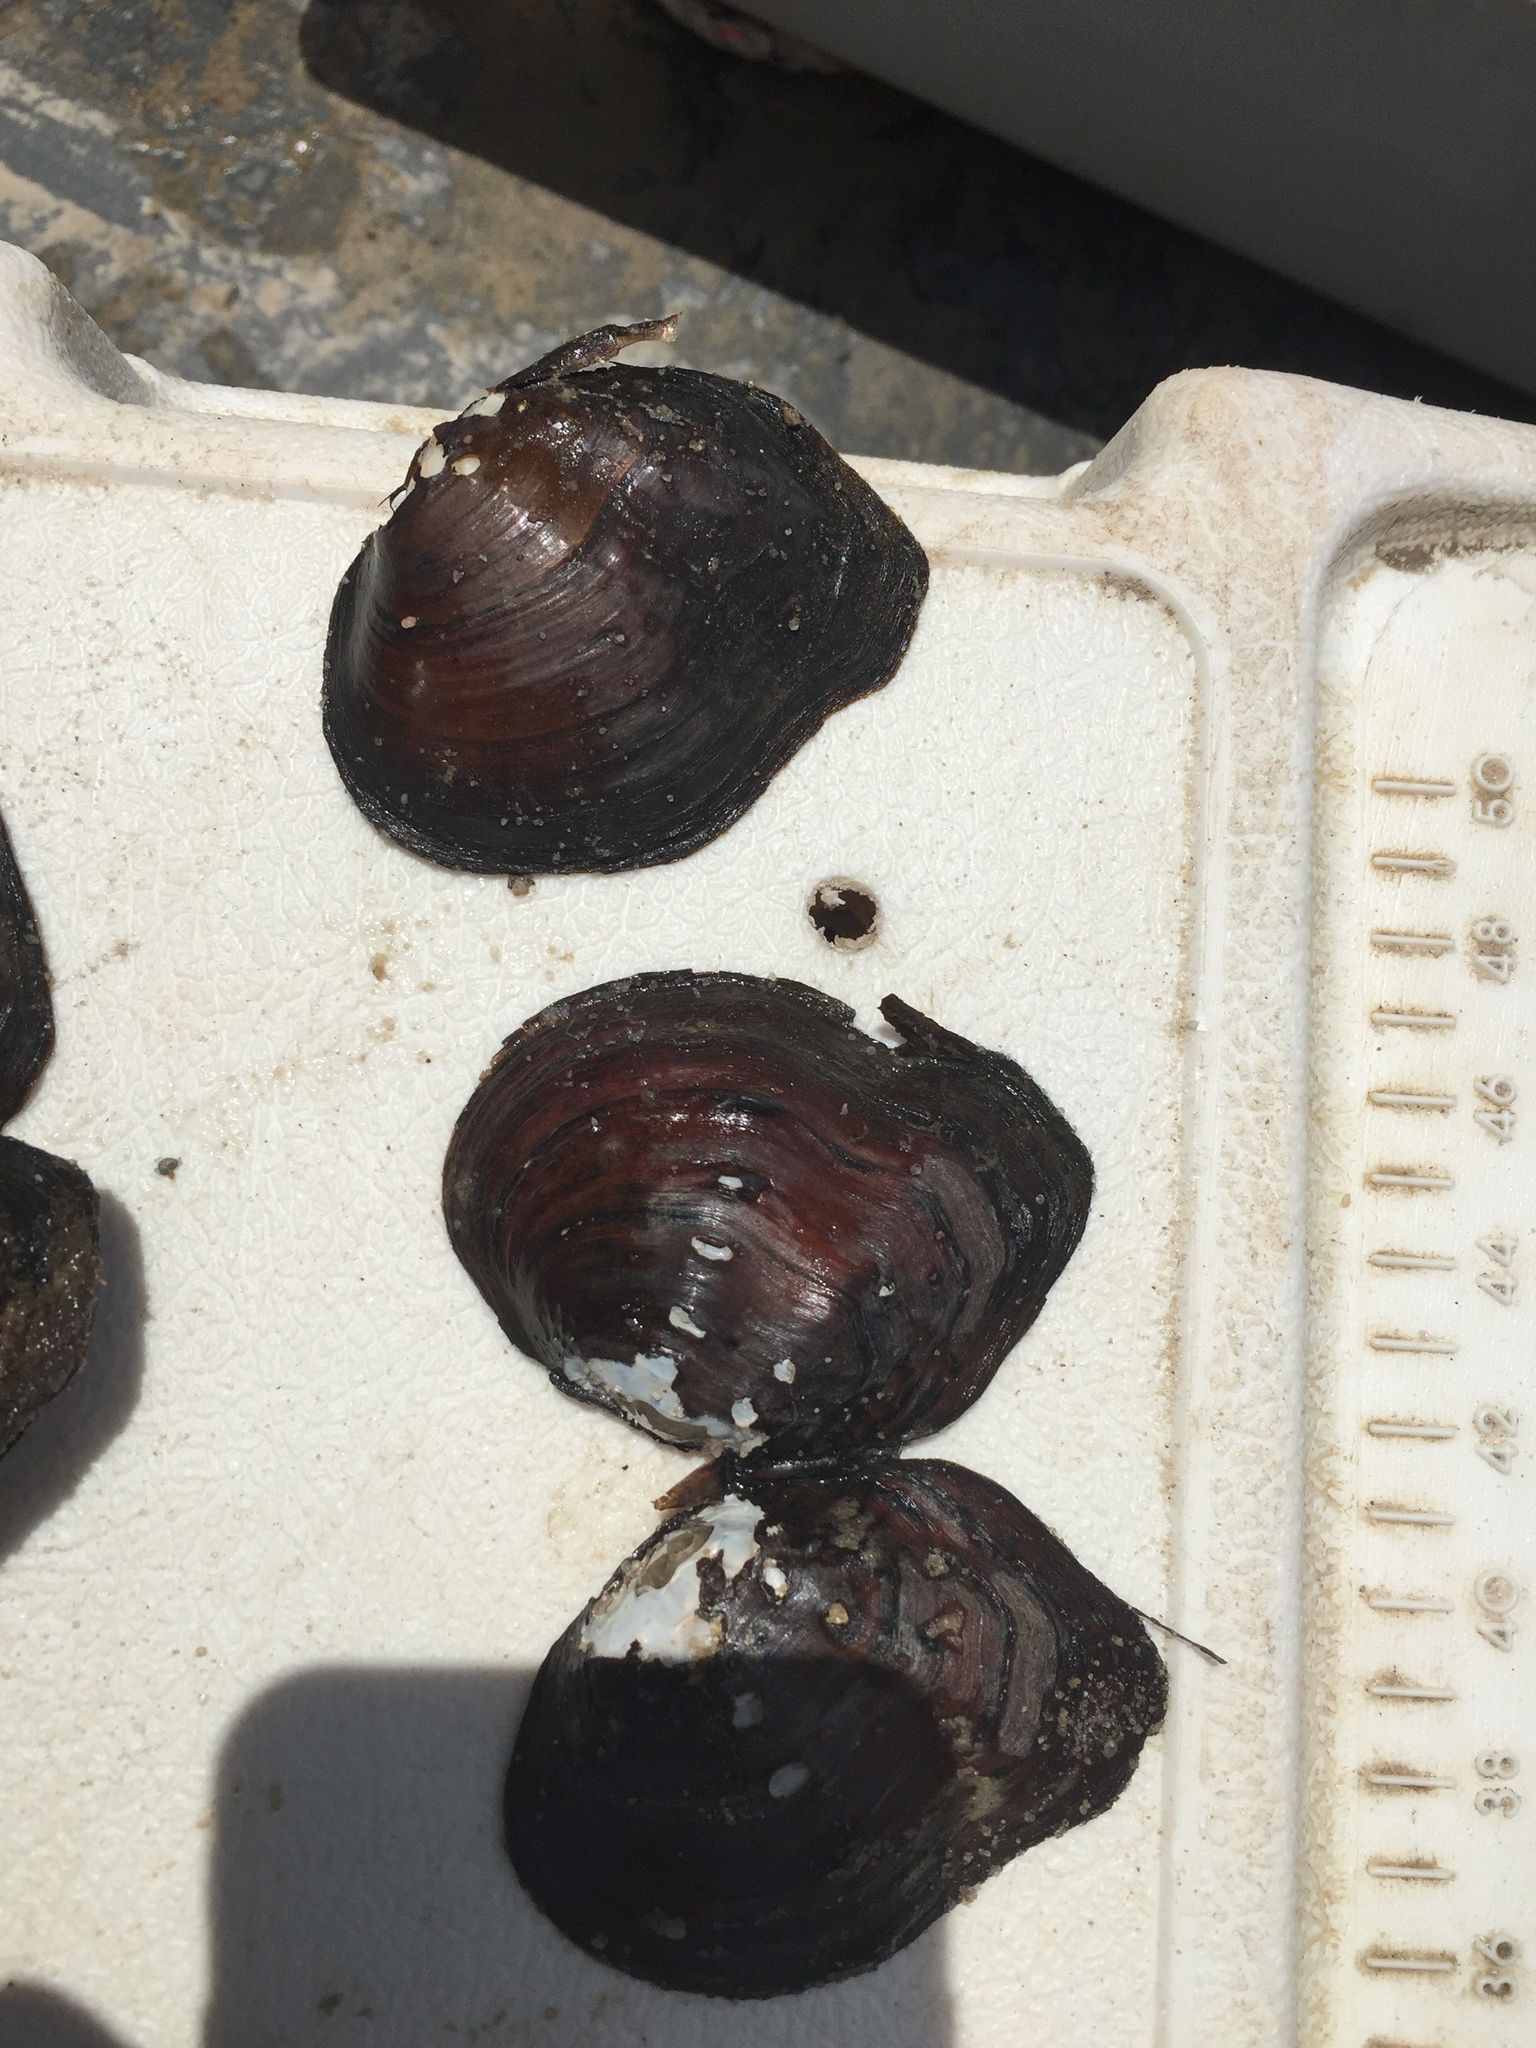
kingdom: Animalia
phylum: Mollusca
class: Bivalvia
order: Unionida
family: Unionidae
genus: Tritogonia
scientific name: Tritogonia nobilis
